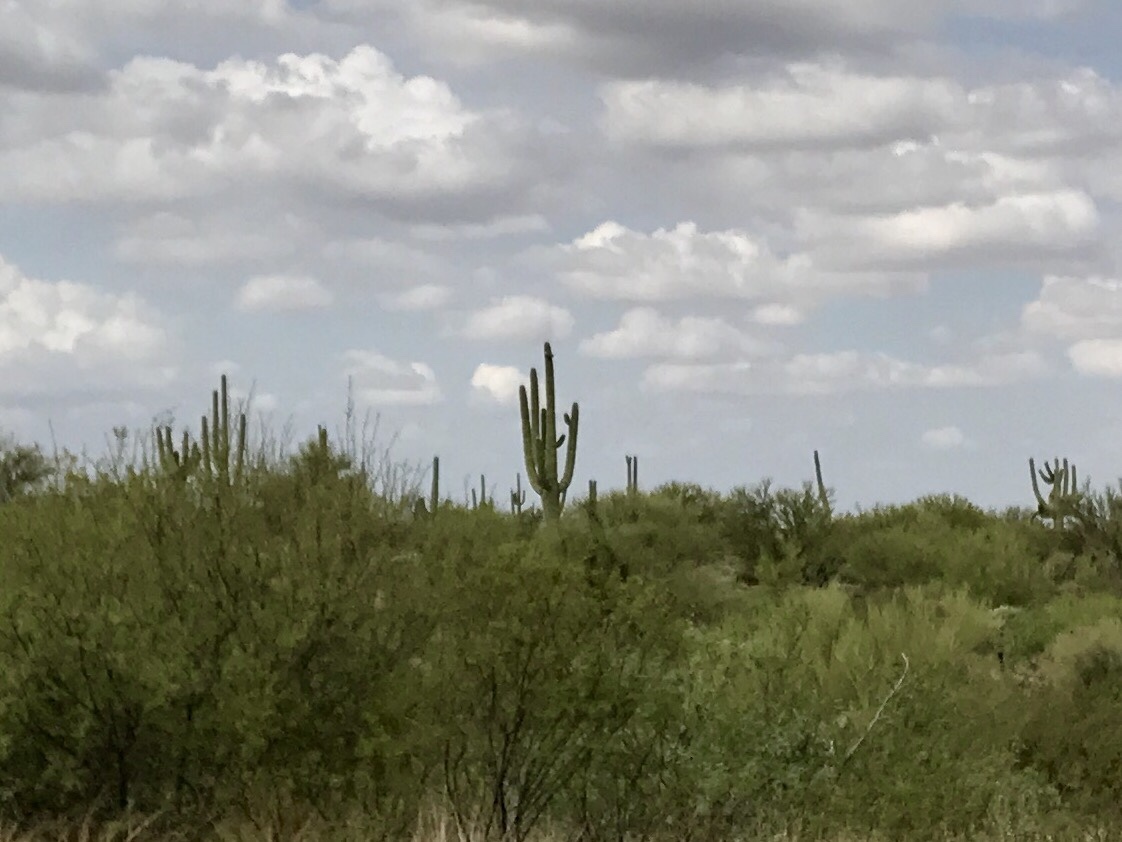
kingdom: Plantae
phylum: Tracheophyta
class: Magnoliopsida
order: Caryophyllales
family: Cactaceae
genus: Carnegiea
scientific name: Carnegiea gigantea
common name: Saguaro
